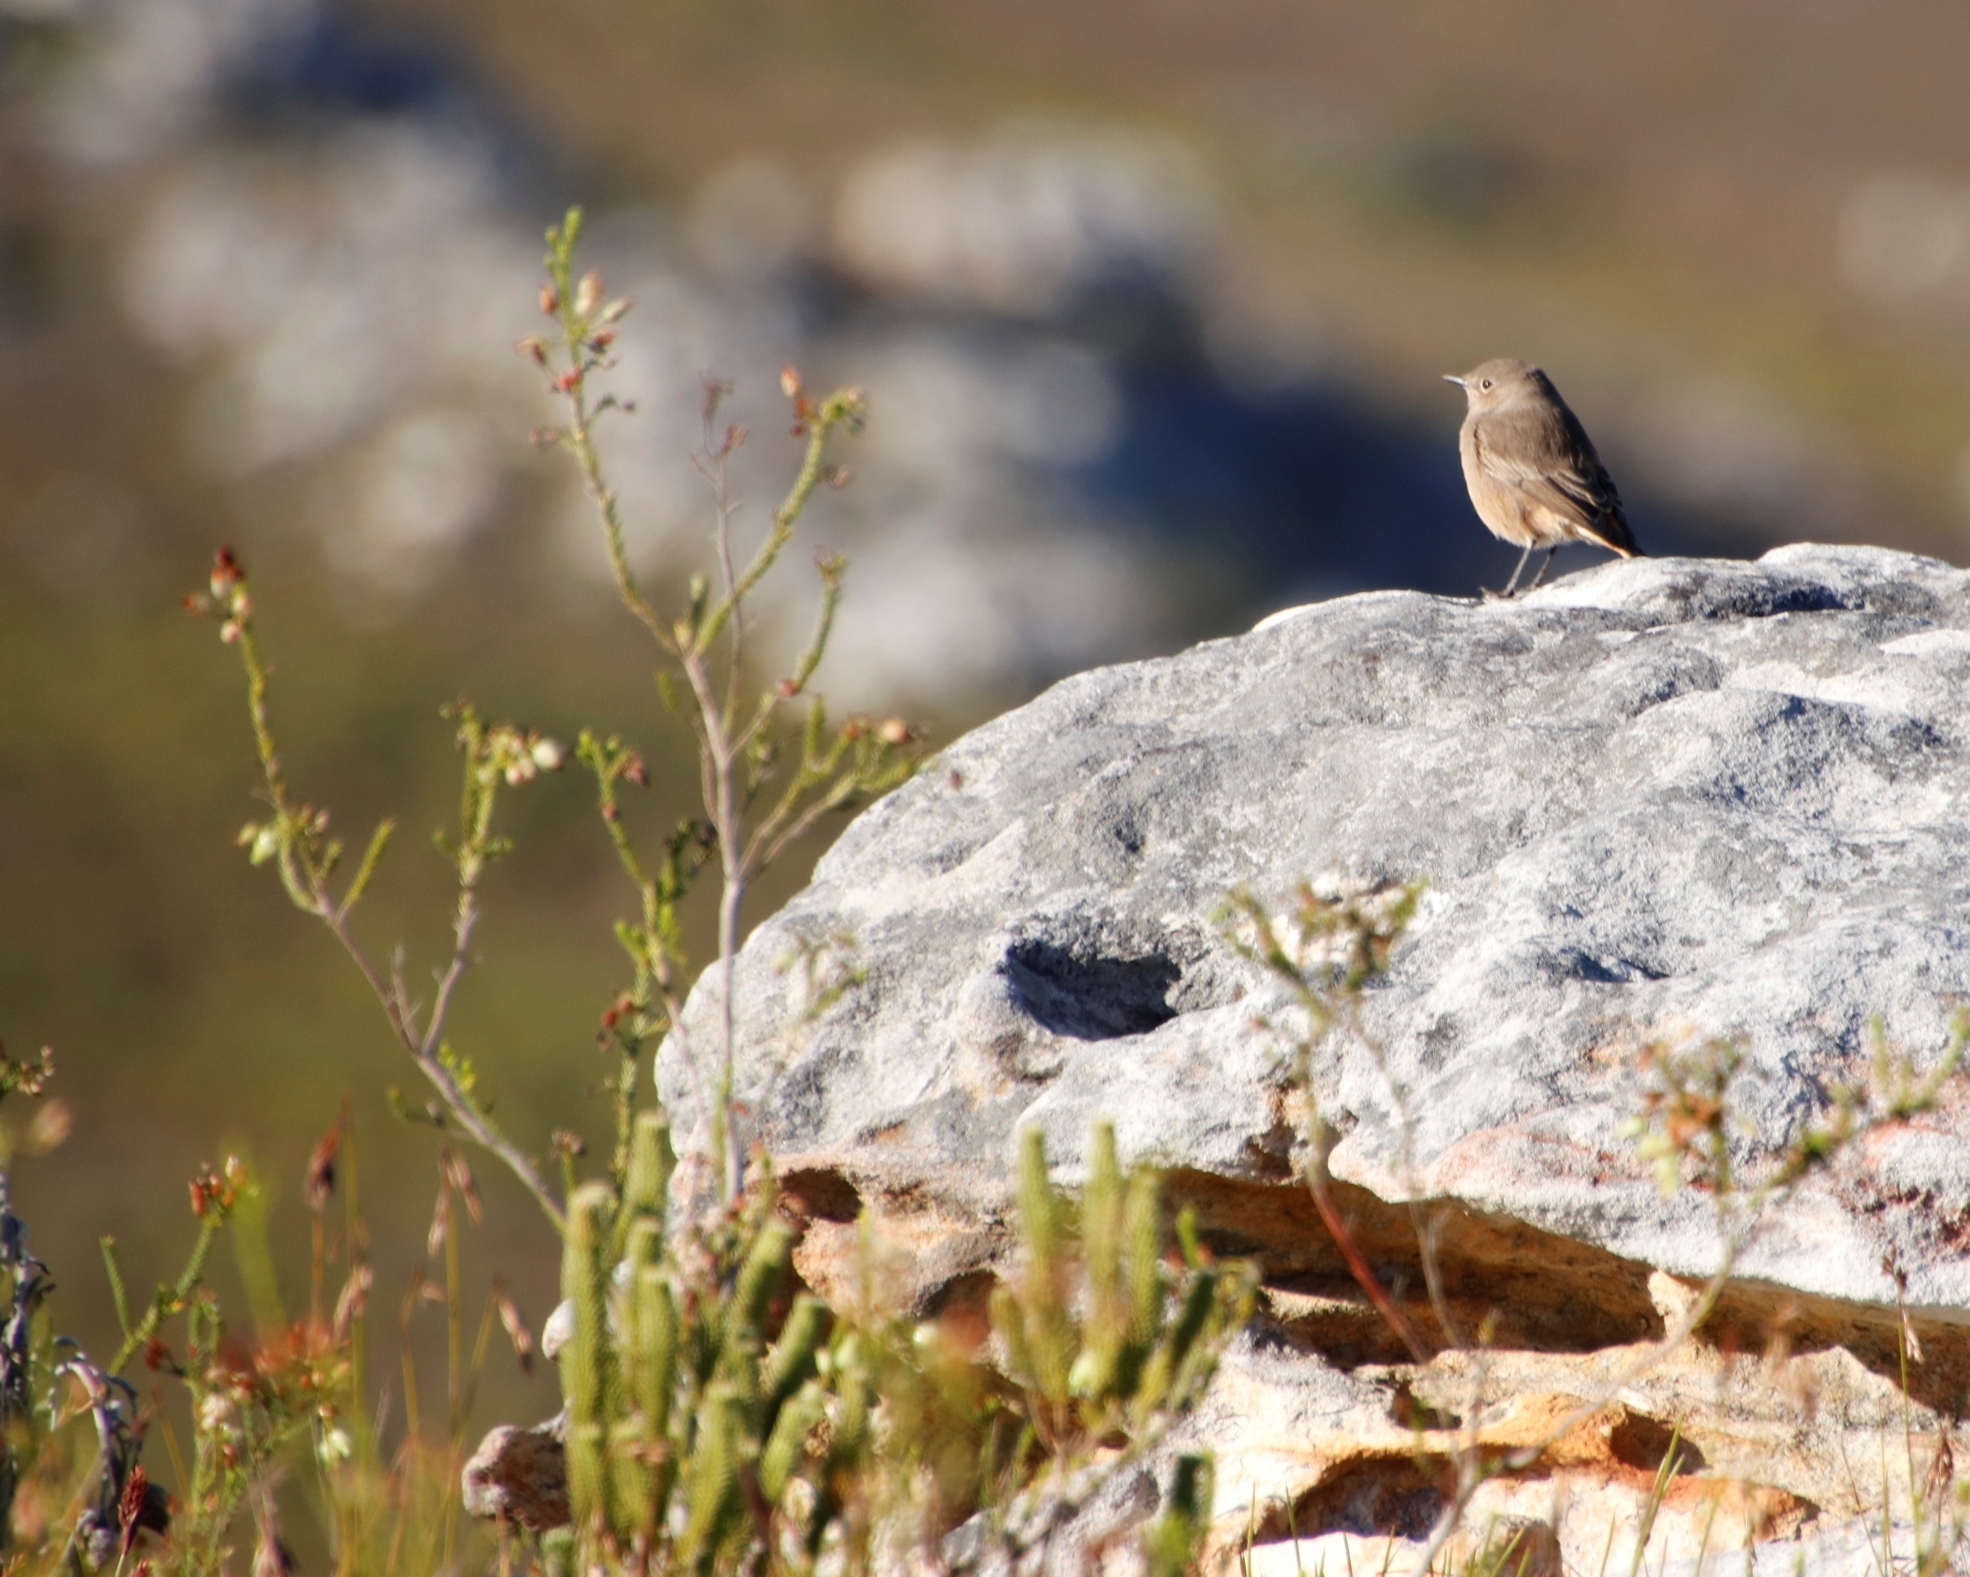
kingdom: Animalia
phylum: Chordata
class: Aves
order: Passeriformes
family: Muscicapidae
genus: Oenanthe
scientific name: Oenanthe familiaris
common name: Familiar chat
